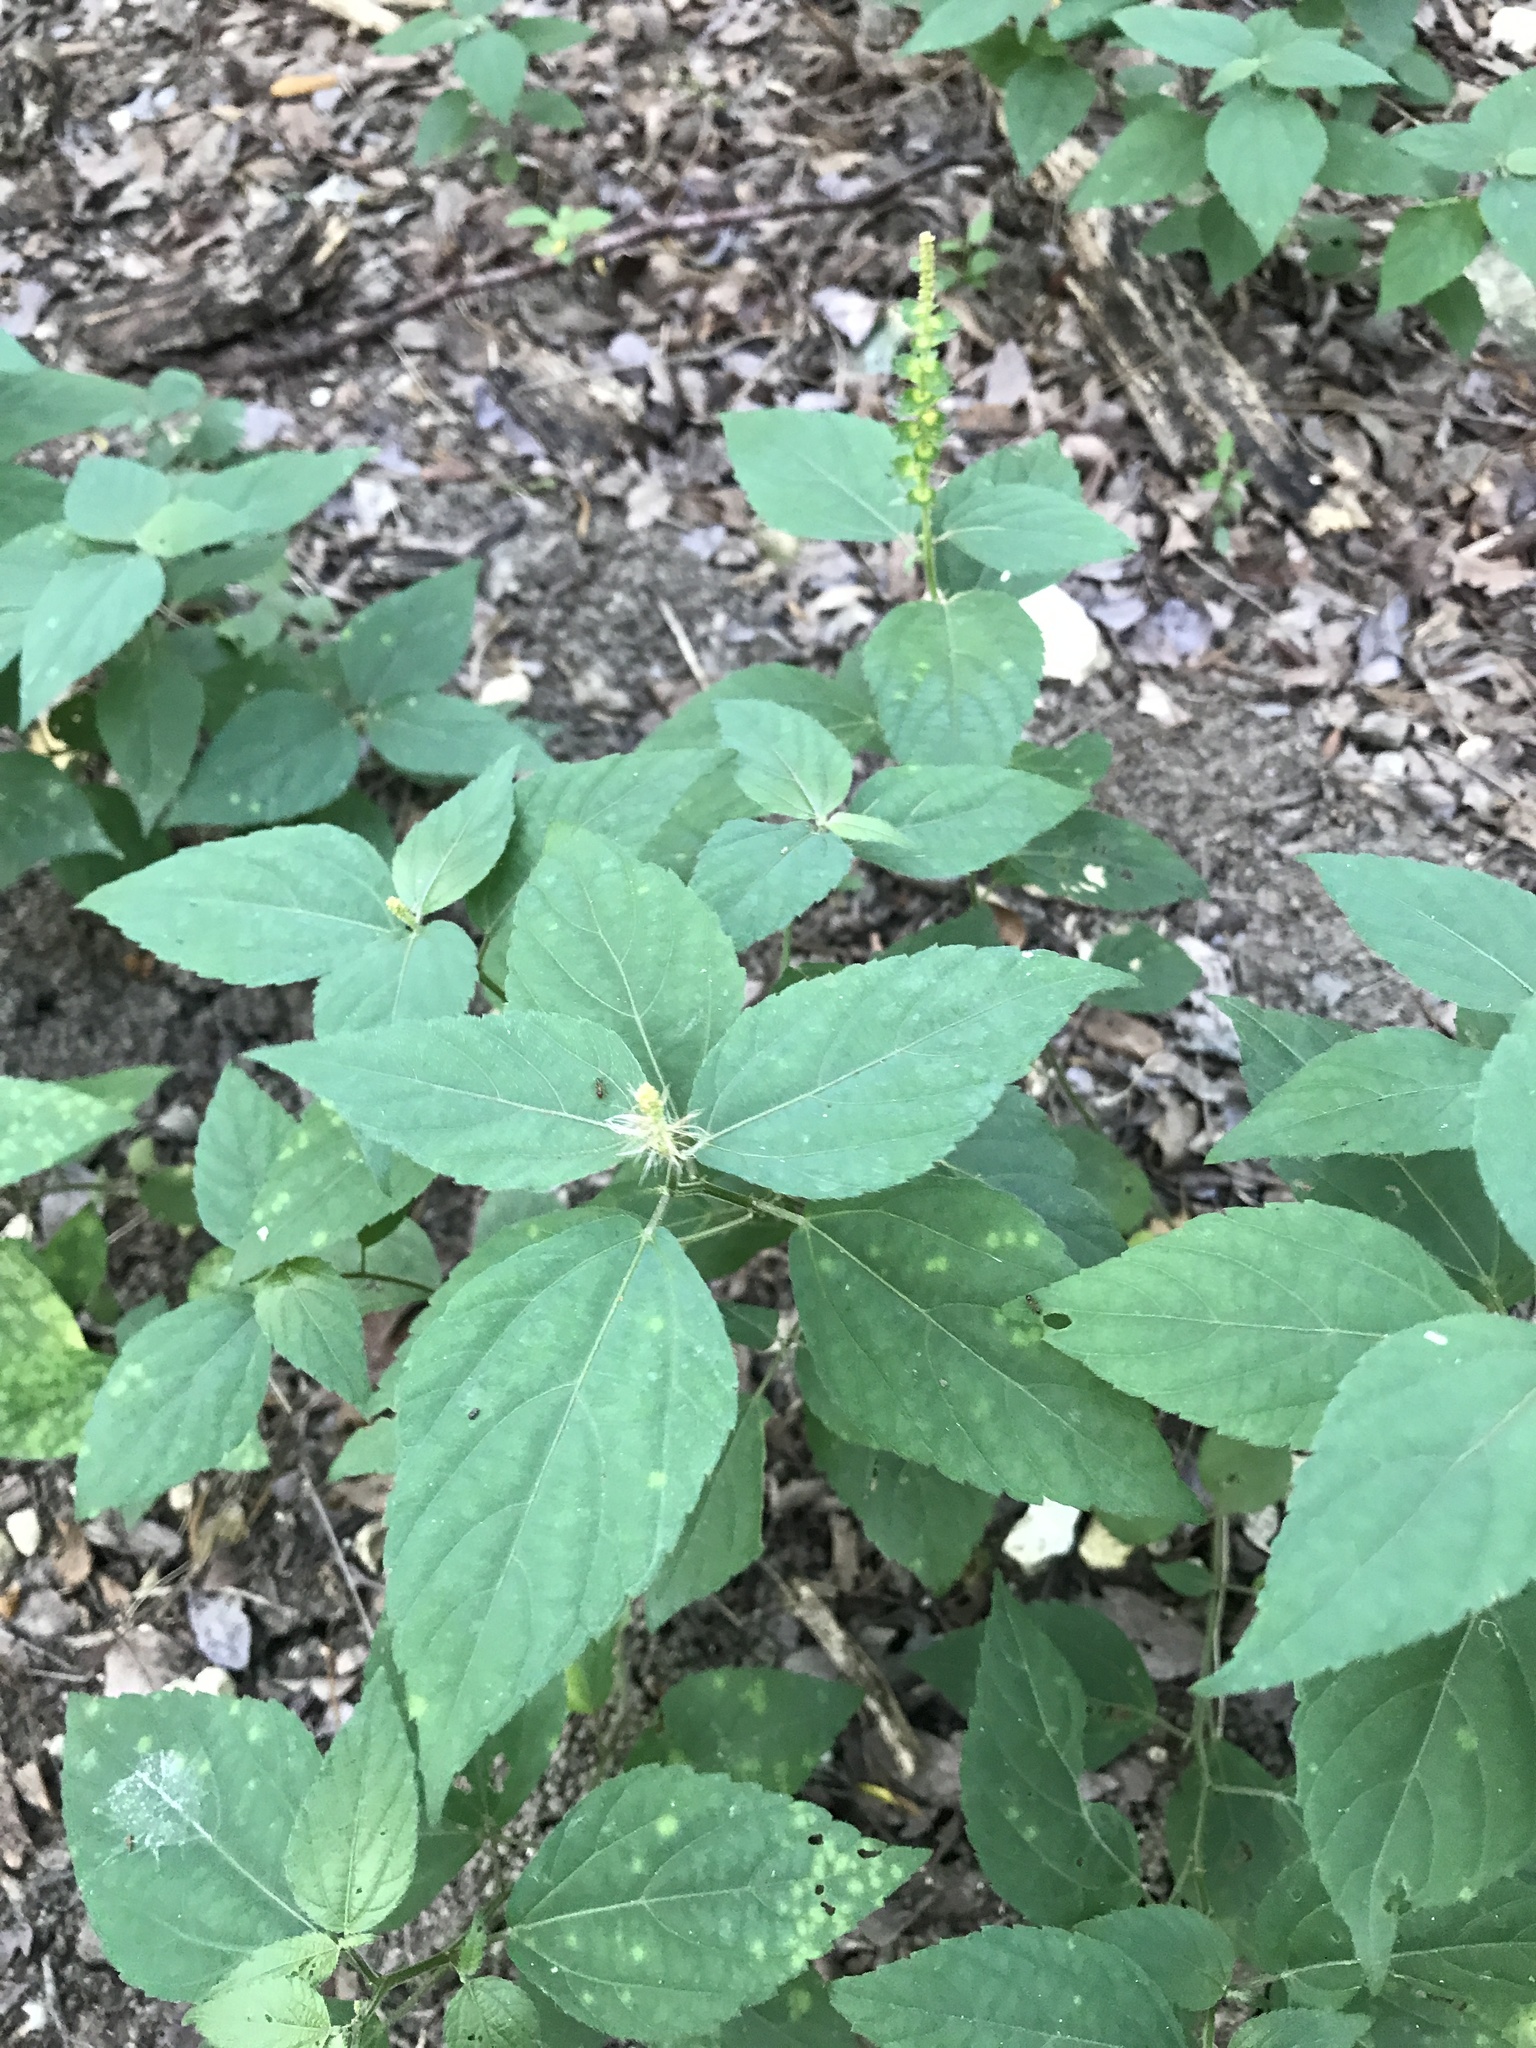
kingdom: Plantae
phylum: Tracheophyta
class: Magnoliopsida
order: Malpighiales
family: Euphorbiaceae
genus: Acalypha
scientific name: Acalypha phleoides
